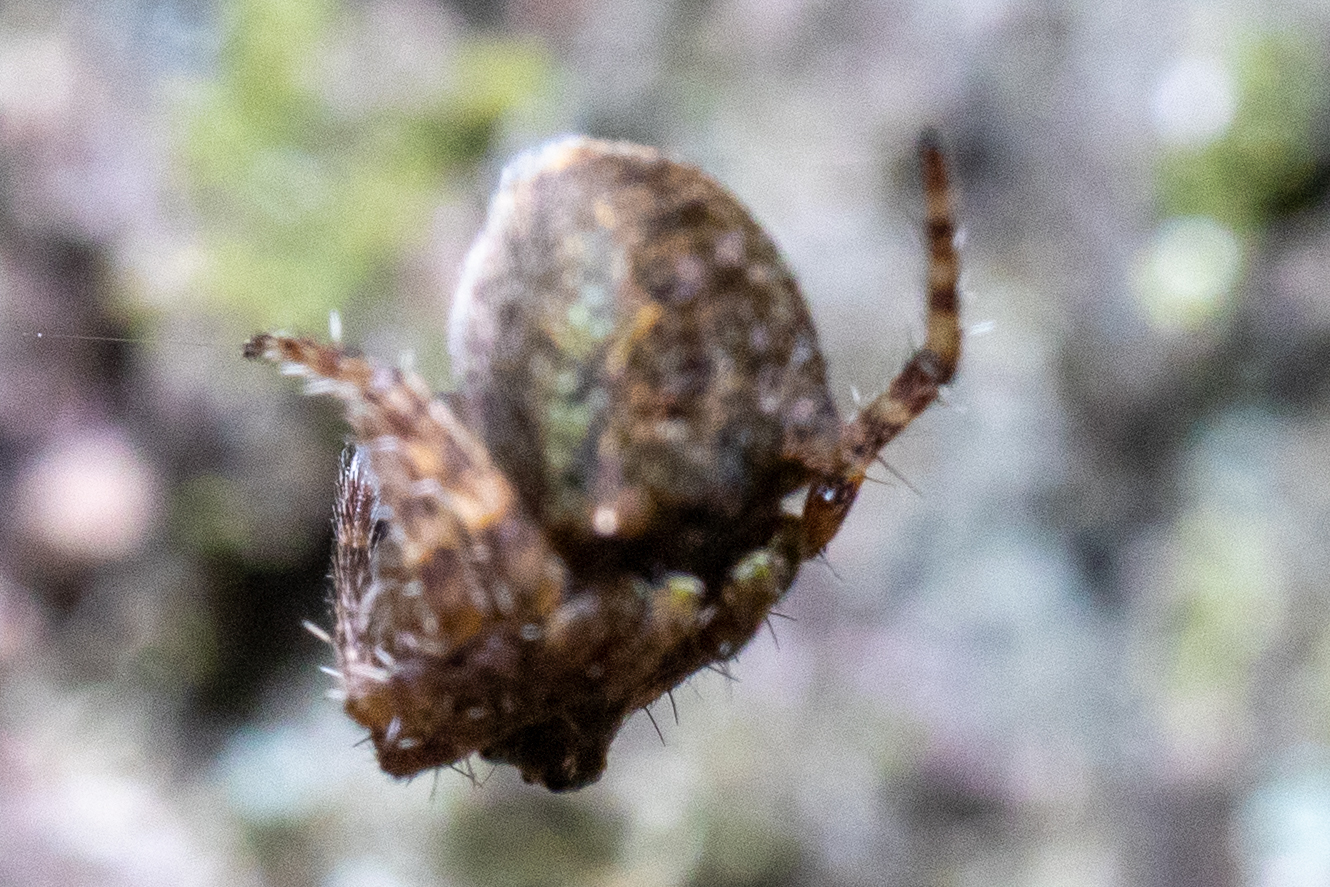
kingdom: Animalia
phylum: Arthropoda
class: Arachnida
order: Araneae
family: Araneidae
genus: Gibbaranea
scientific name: Gibbaranea gibbosa
